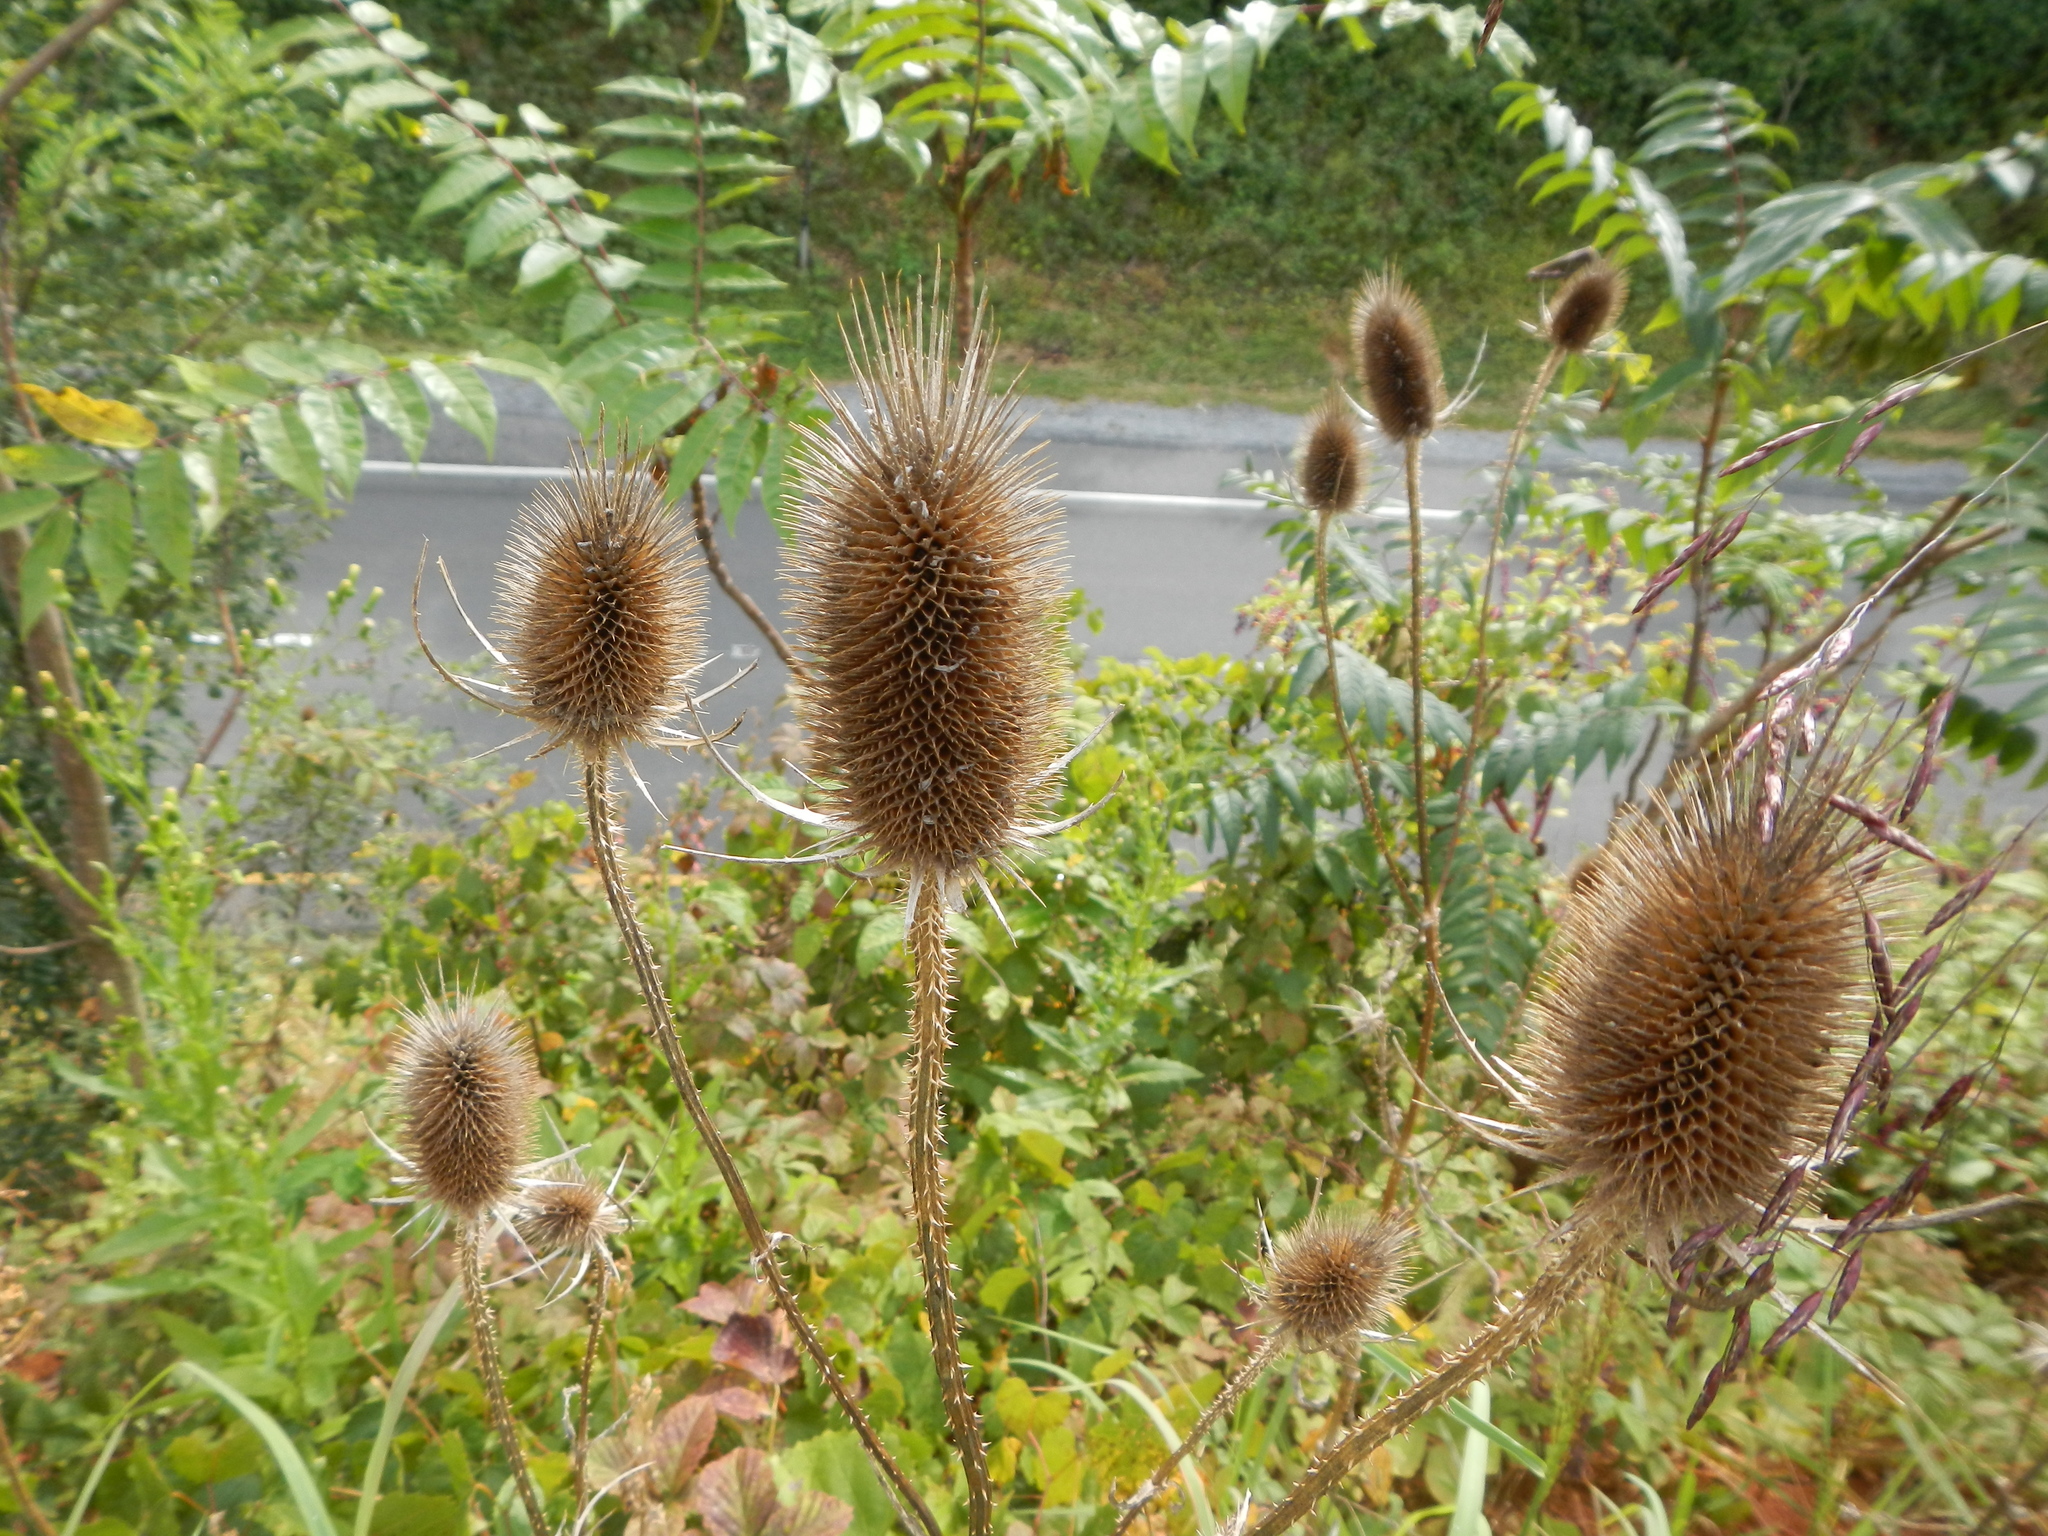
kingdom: Plantae
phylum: Tracheophyta
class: Magnoliopsida
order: Dipsacales
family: Caprifoliaceae
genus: Dipsacus
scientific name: Dipsacus fullonum
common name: Teasel
